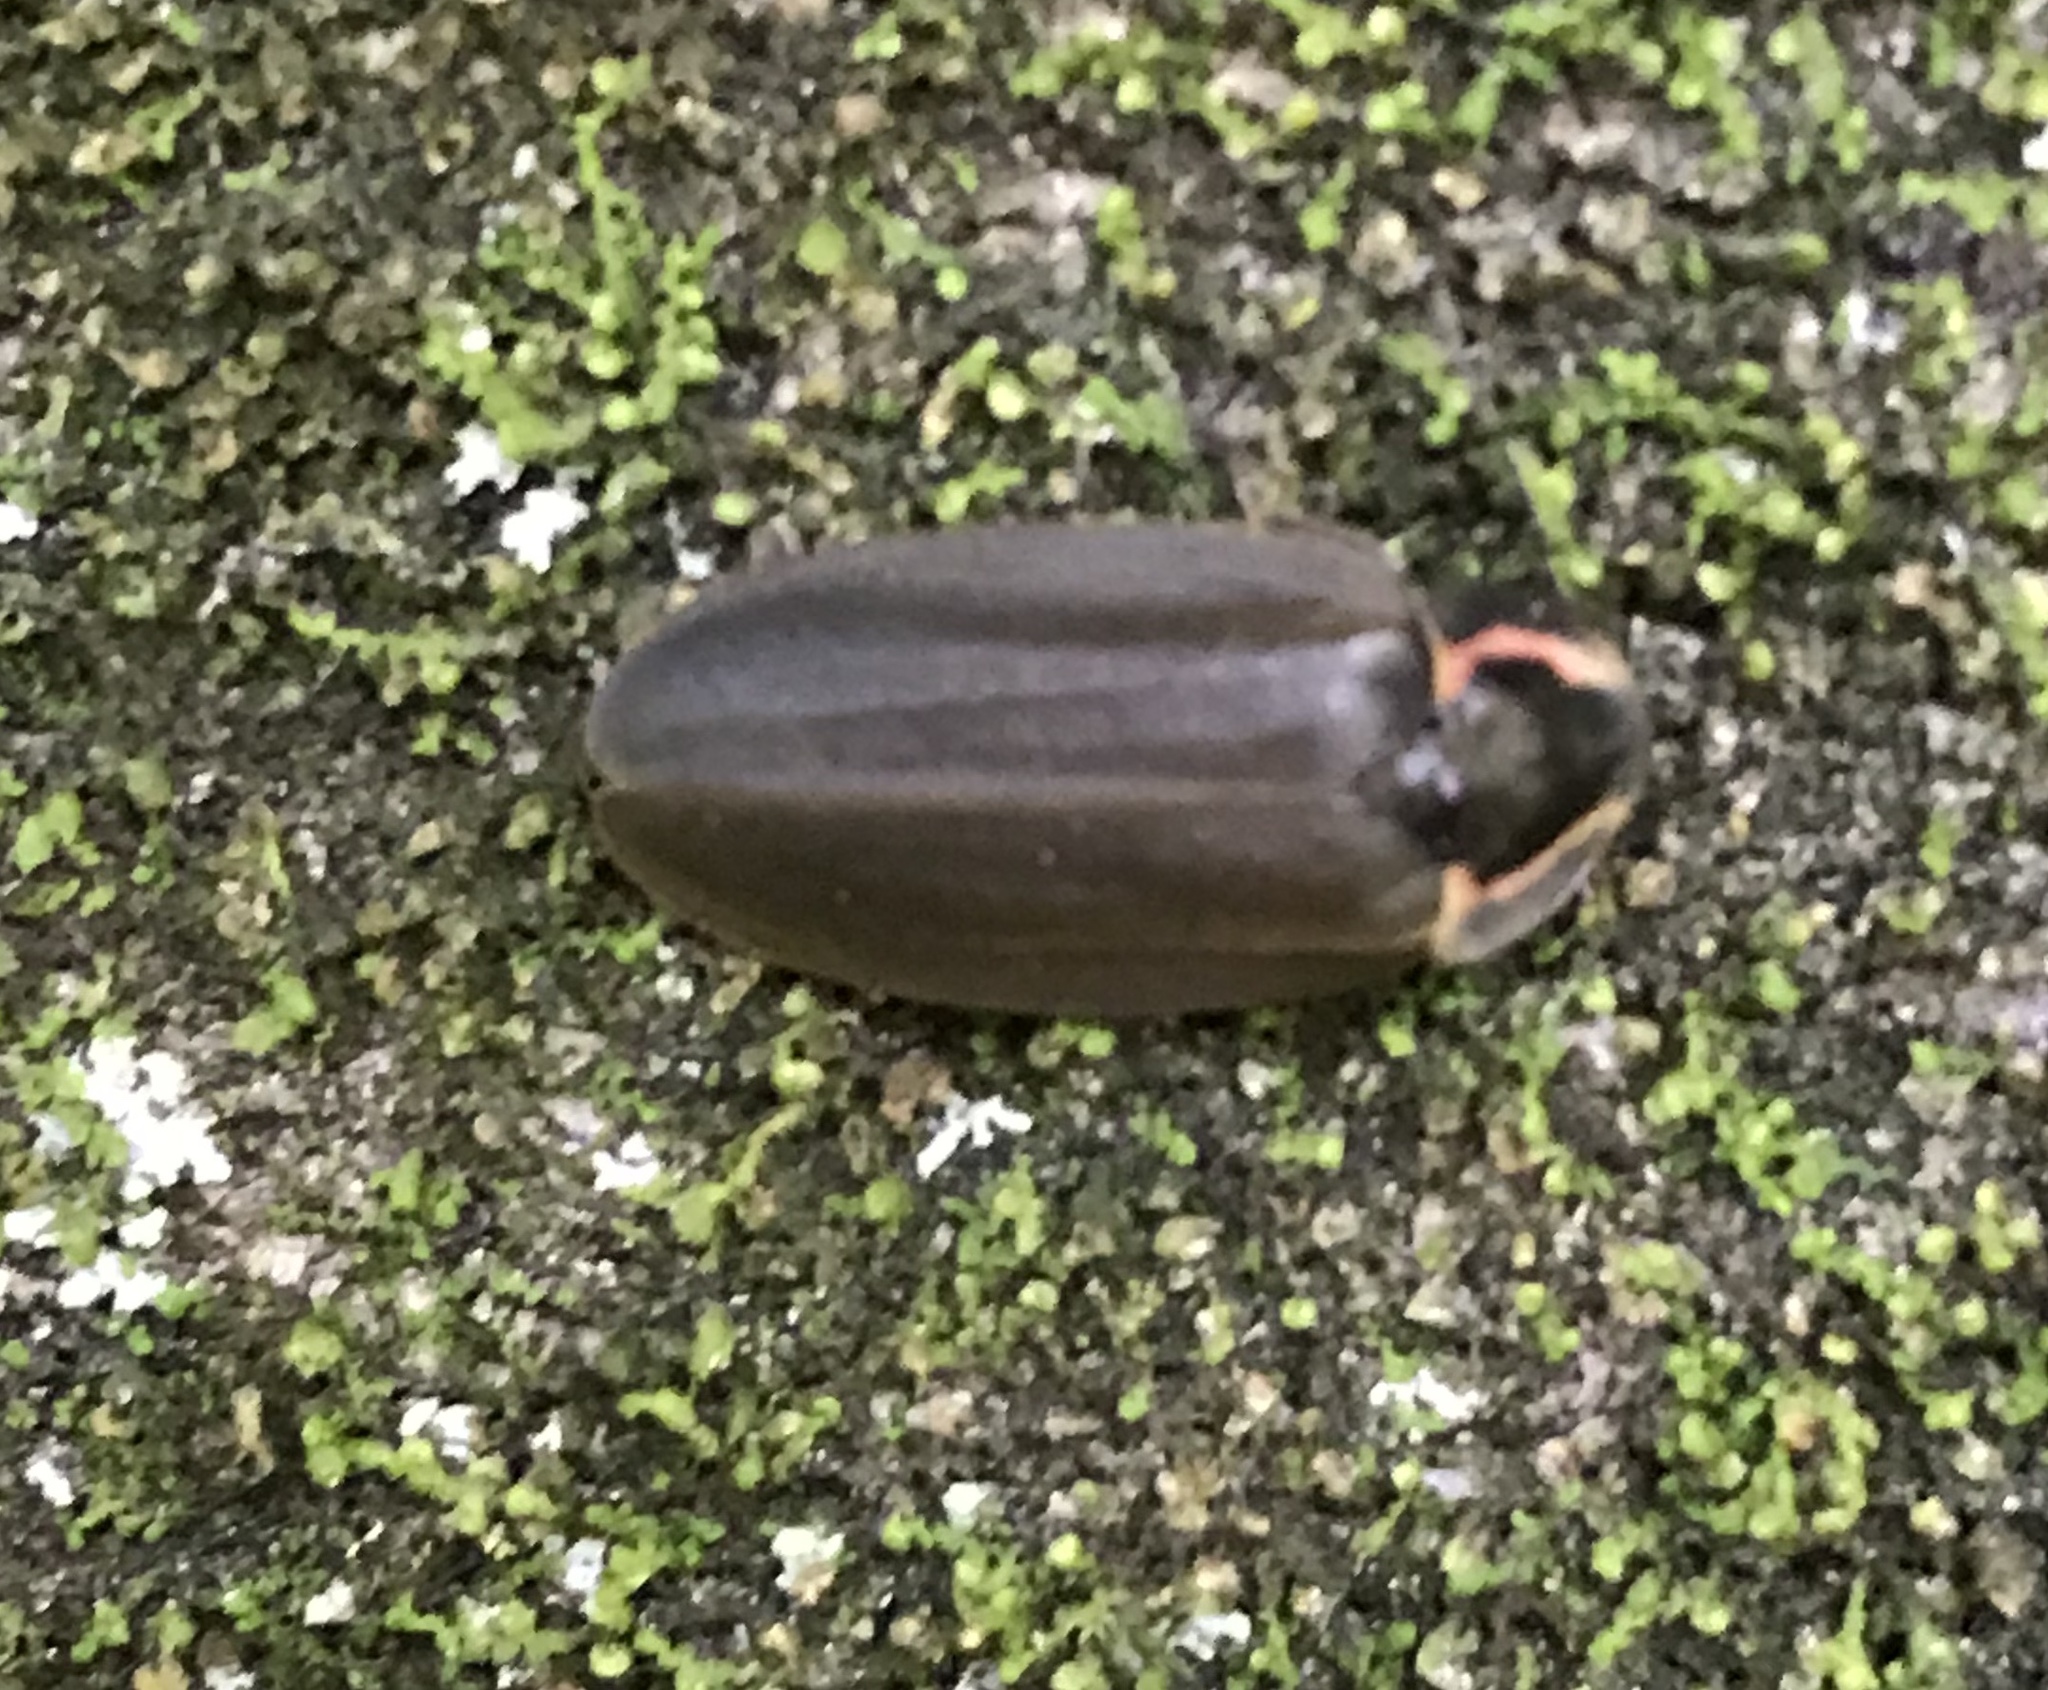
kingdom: Animalia
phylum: Arthropoda
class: Insecta
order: Coleoptera
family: Lampyridae
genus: Photinus
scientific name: Photinus corrusca
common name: Winter firefly
